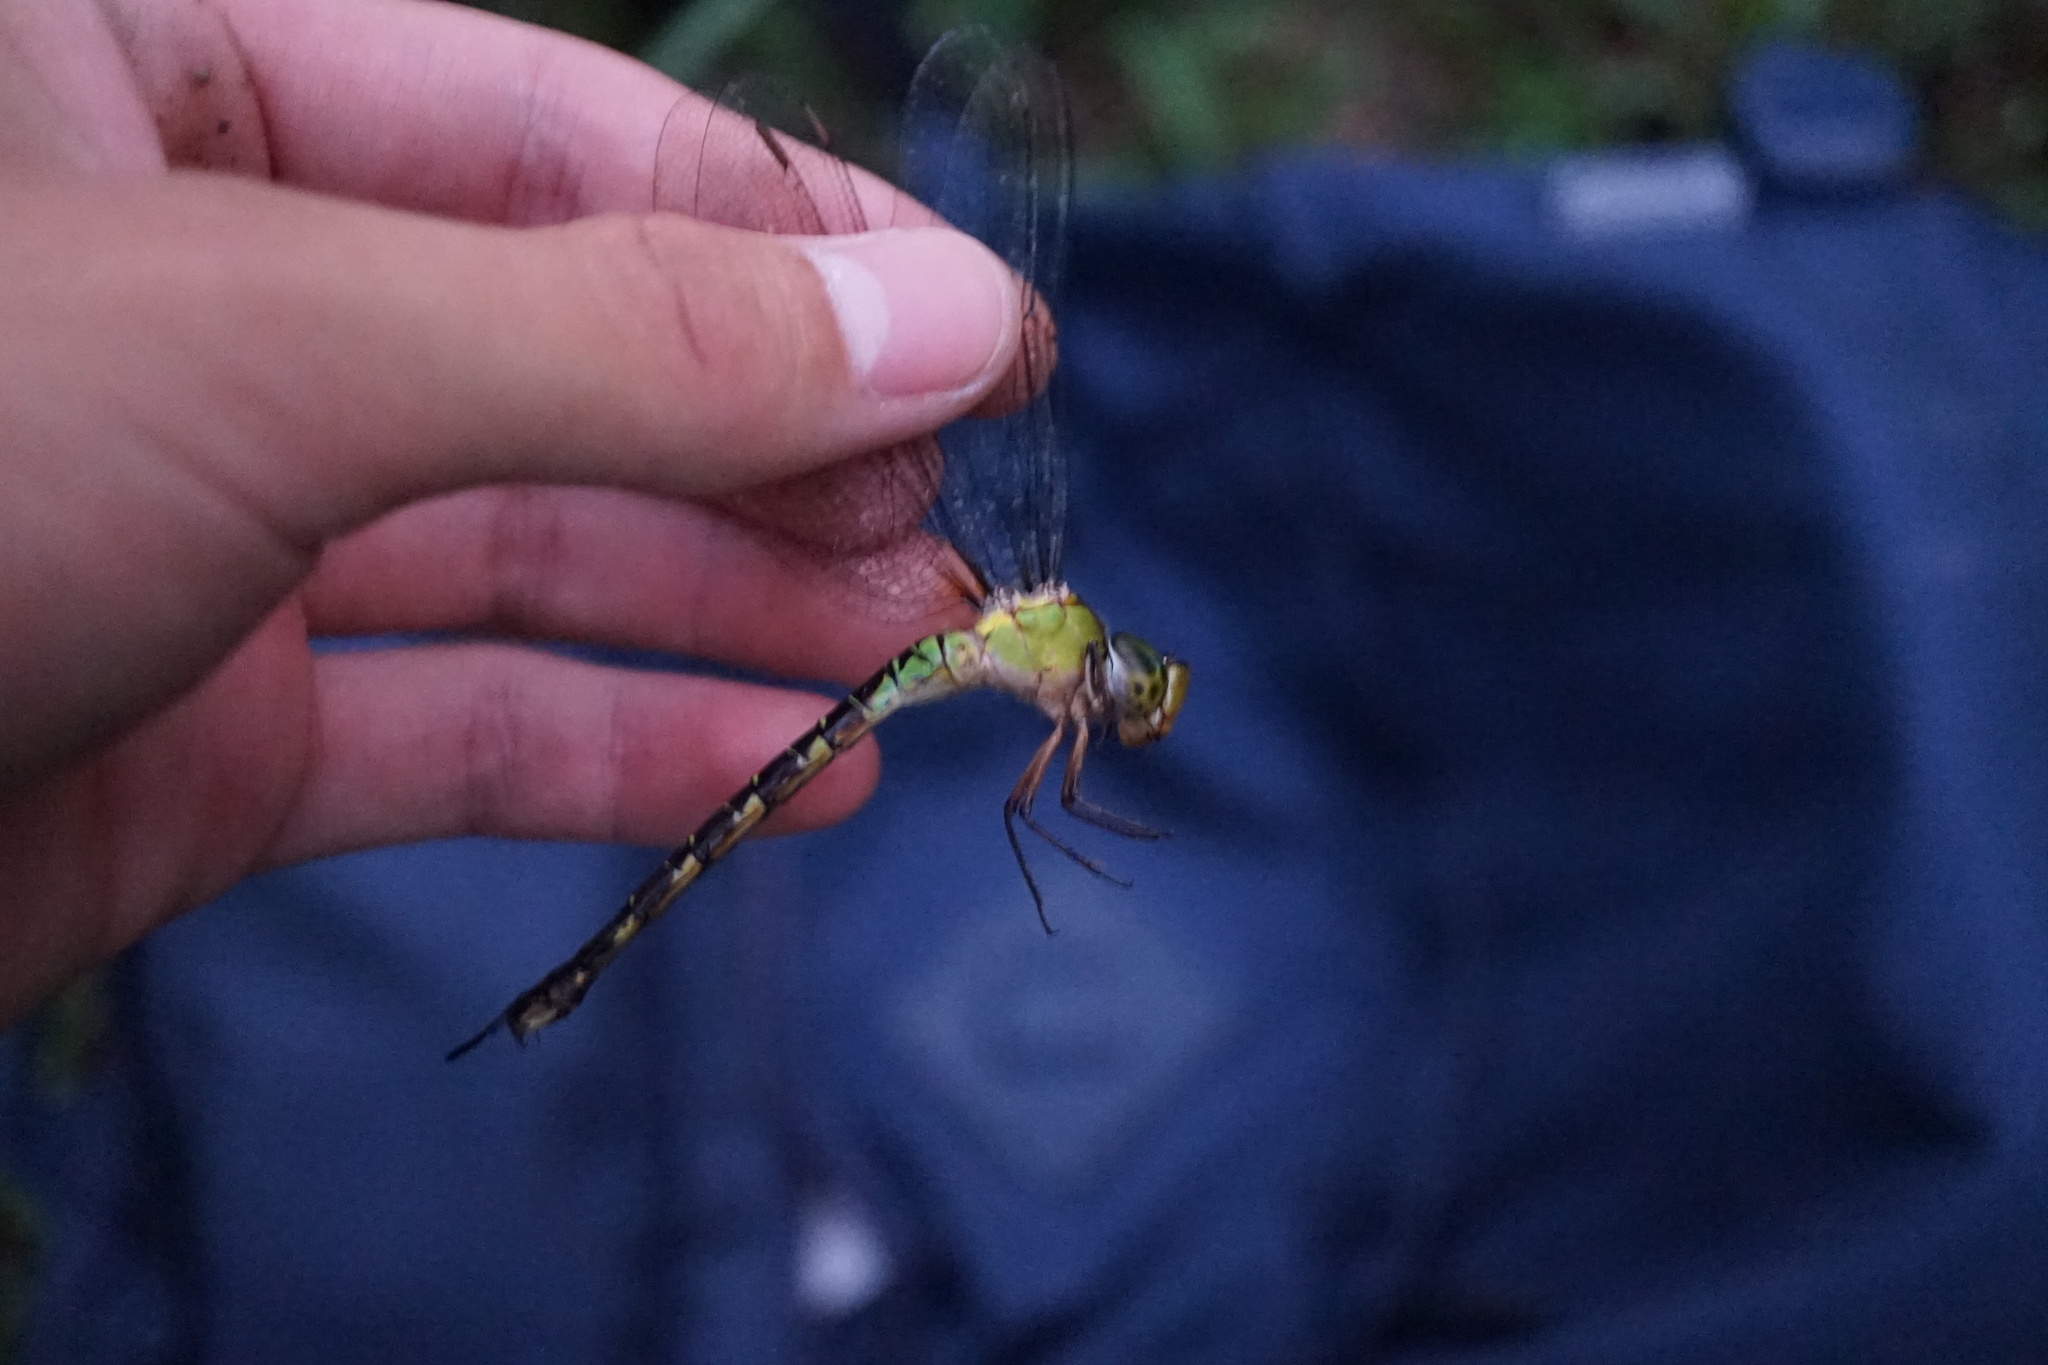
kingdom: Animalia
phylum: Arthropoda
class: Insecta
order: Odonata
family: Aeshnidae
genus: Gynacantha
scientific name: Gynacantha japonica
